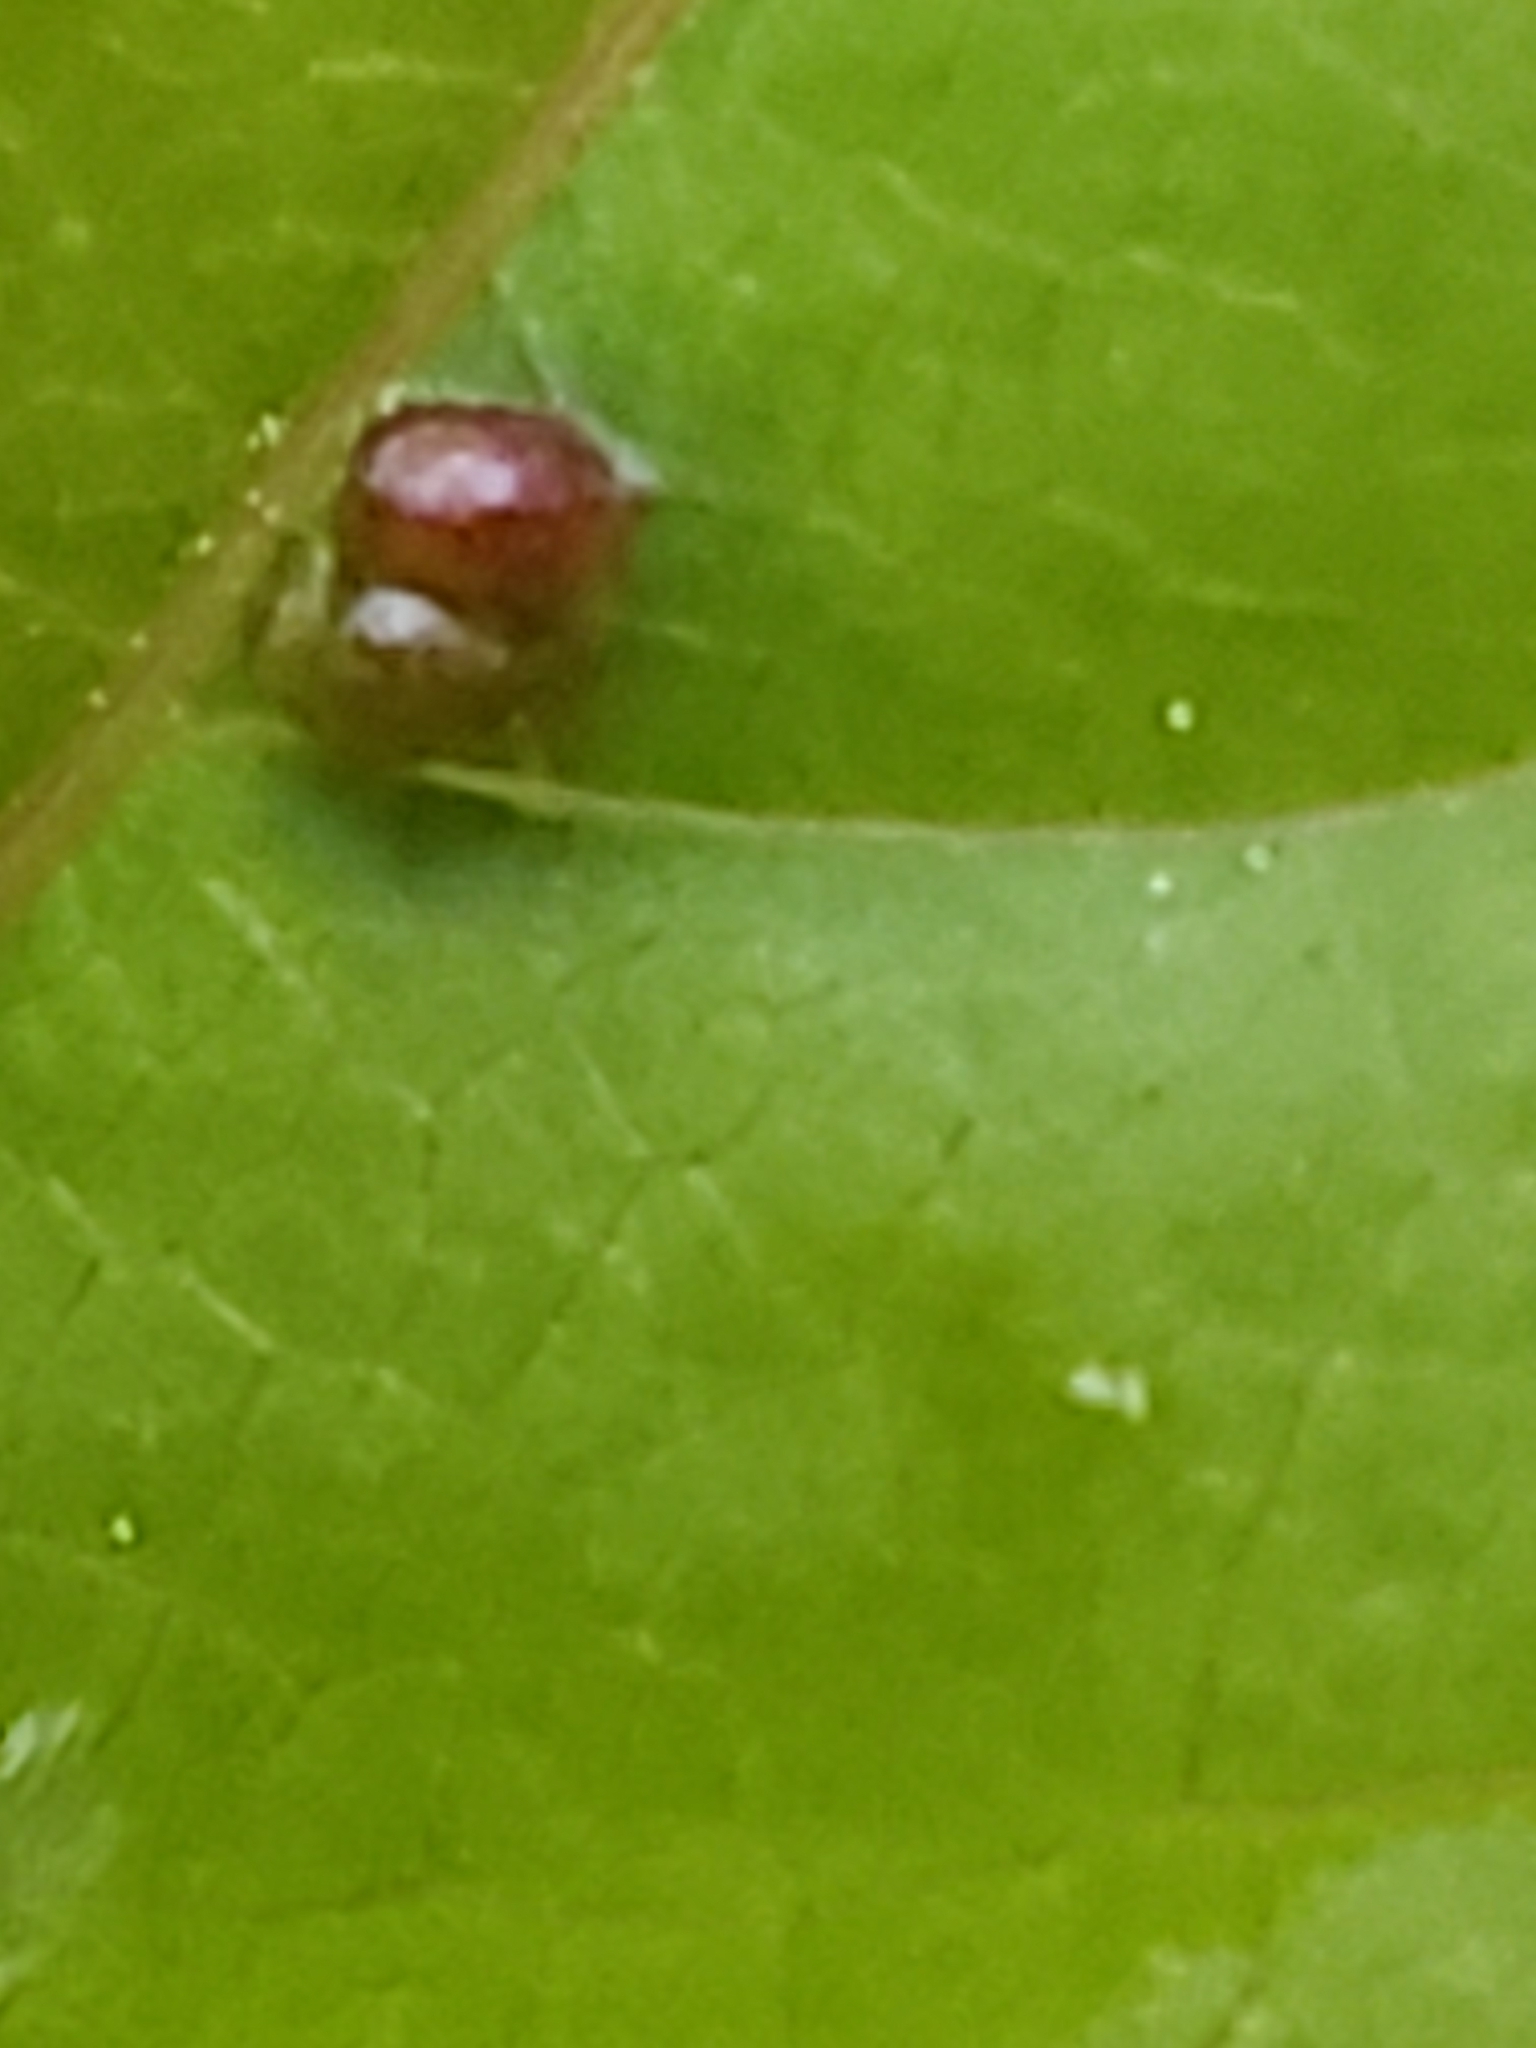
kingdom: Animalia
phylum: Arthropoda
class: Arachnida
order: Trombidiformes
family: Eriophyidae
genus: Aceria
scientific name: Aceria
